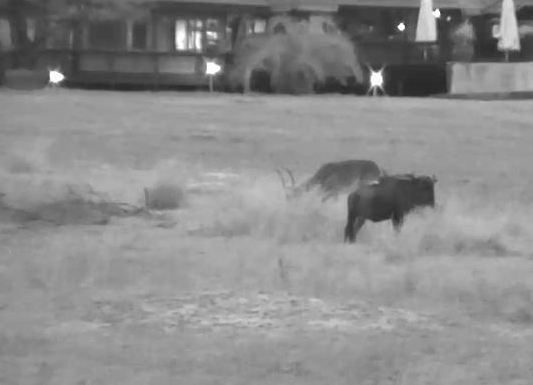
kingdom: Animalia
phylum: Chordata
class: Mammalia
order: Artiodactyla
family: Bovidae
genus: Connochaetes
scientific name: Connochaetes taurinus
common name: Blue wildebeest
